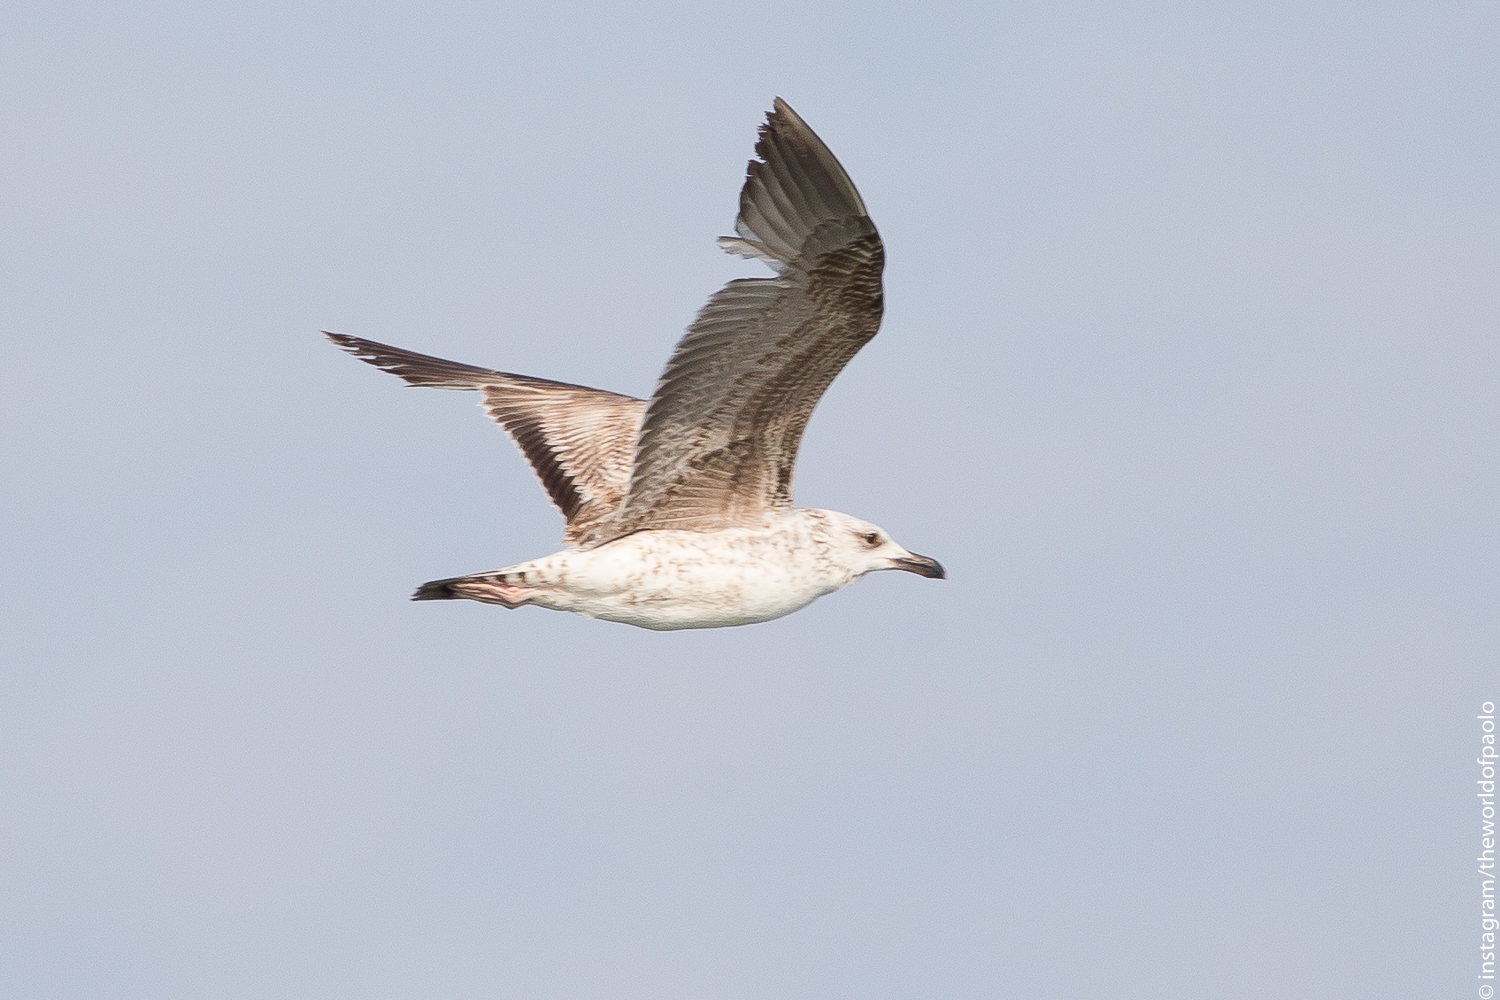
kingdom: Animalia
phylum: Chordata
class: Aves
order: Charadriiformes
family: Laridae
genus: Larus
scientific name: Larus michahellis
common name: Yellow-legged gull
